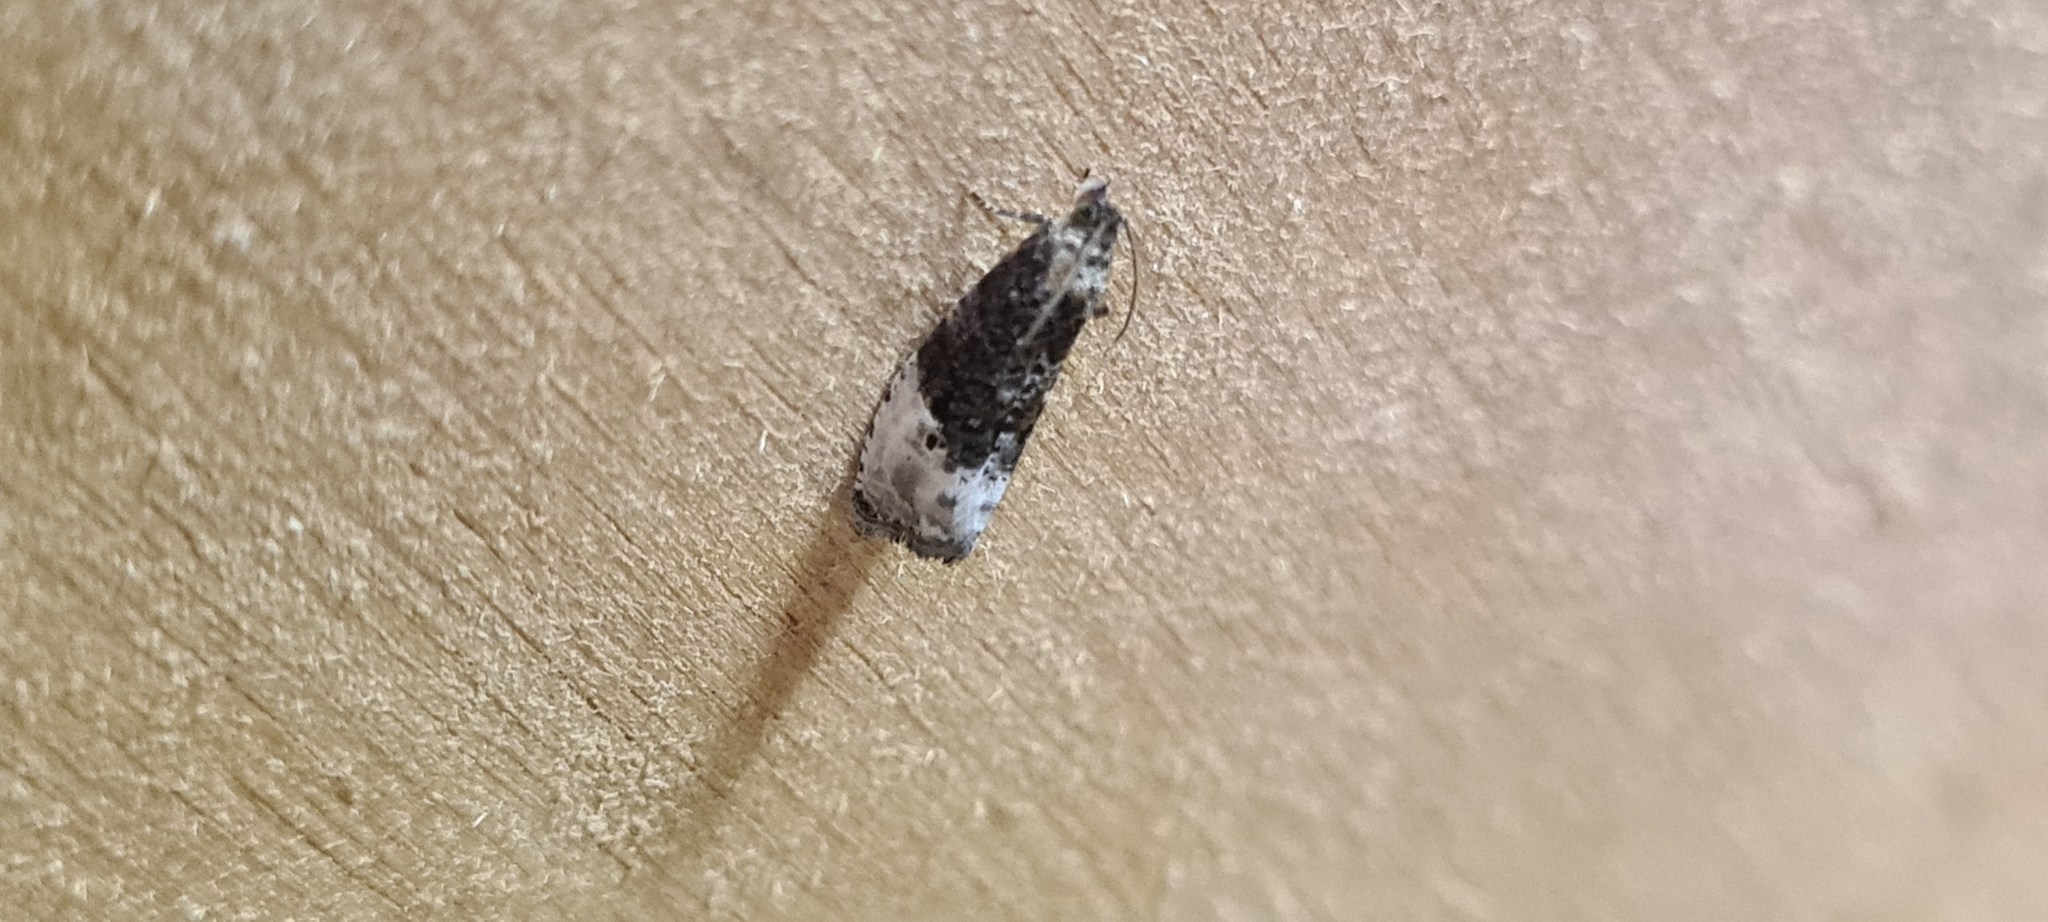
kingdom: Animalia
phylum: Arthropoda
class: Insecta
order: Lepidoptera
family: Tortricidae
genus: Hedya
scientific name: Hedya nubiferana
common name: Marbled orchard tortrix
